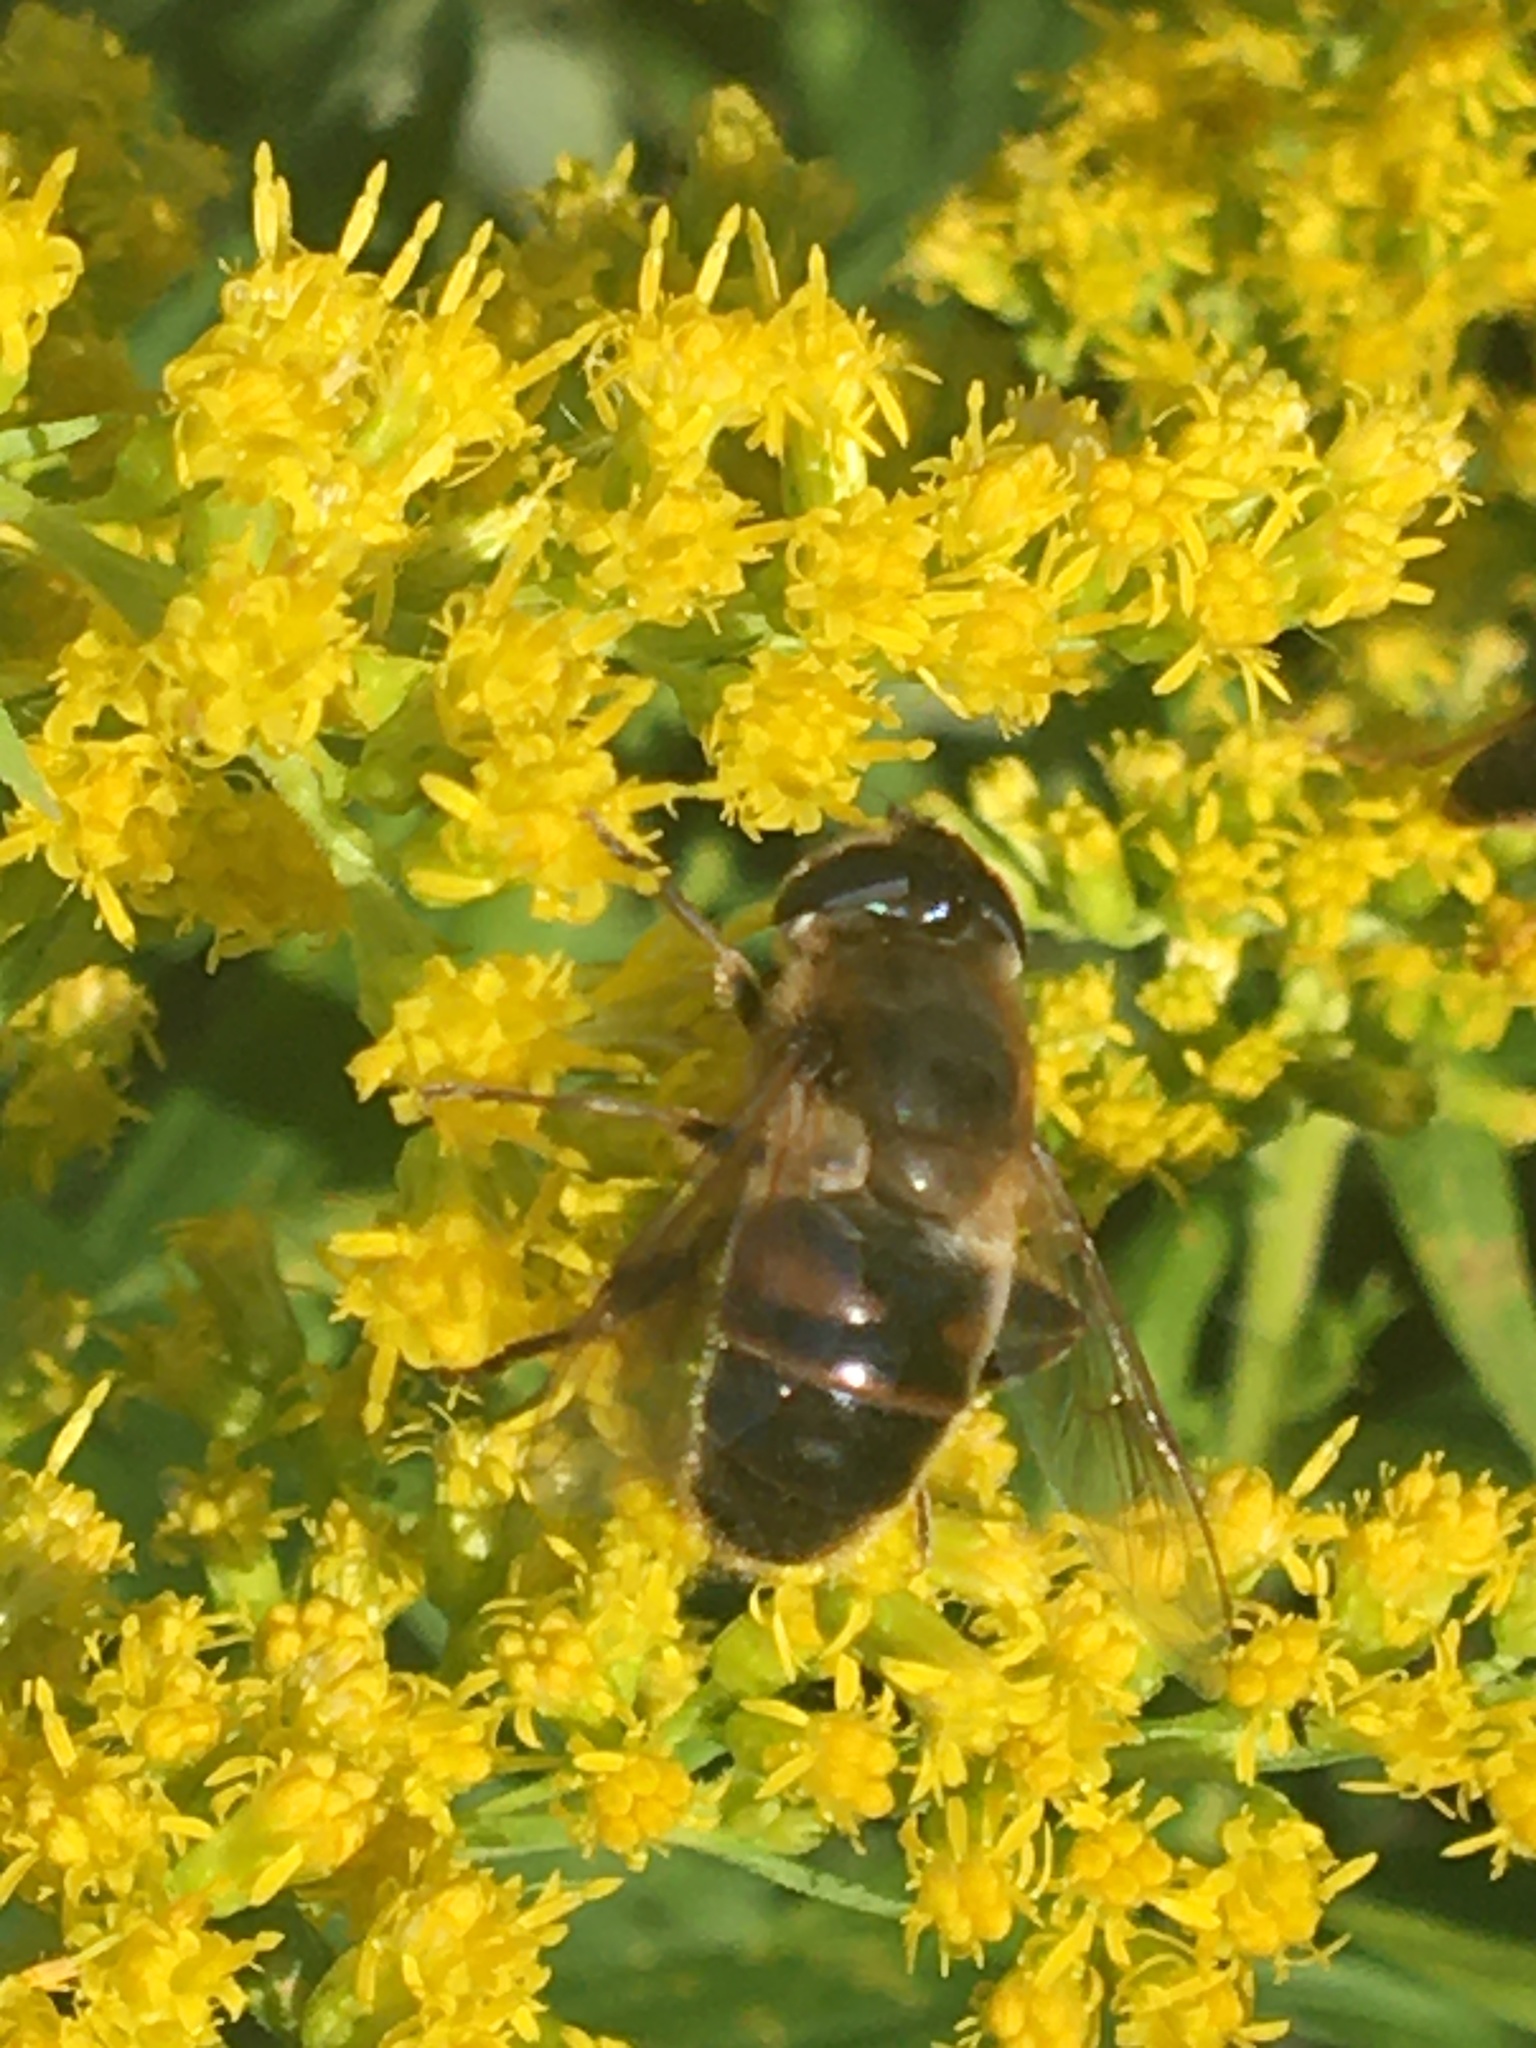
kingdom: Animalia
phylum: Arthropoda
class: Insecta
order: Diptera
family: Syrphidae
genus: Eristalis
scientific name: Eristalis tenax
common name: Drone fly
